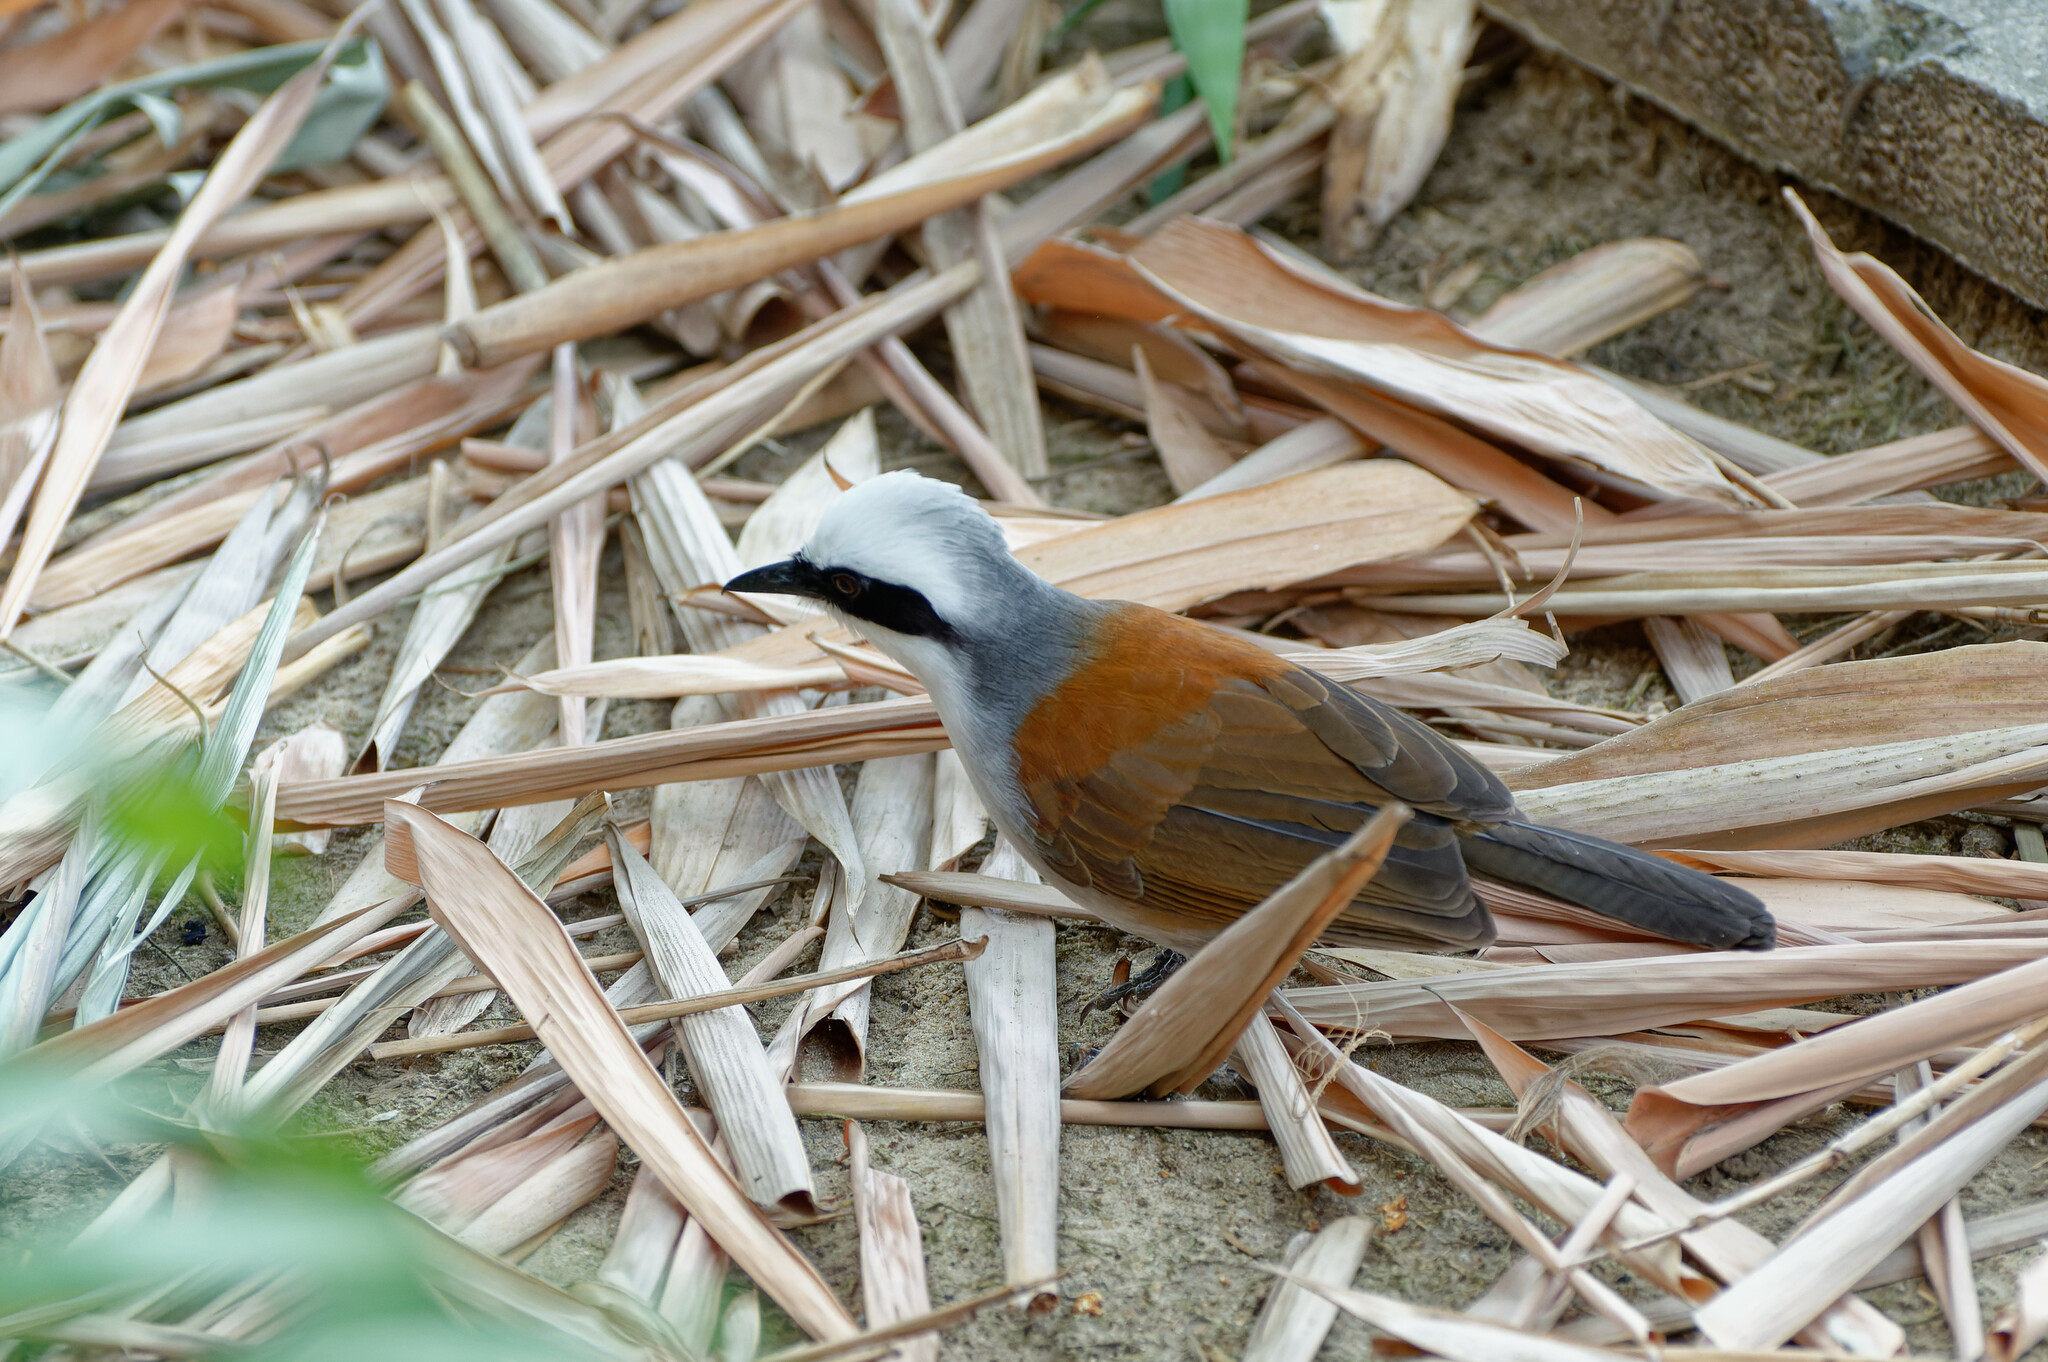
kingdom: Animalia
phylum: Chordata
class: Aves
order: Passeriformes
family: Leiothrichidae
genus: Garrulax
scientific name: Garrulax leucolophus
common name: White-crested laughingthrush
